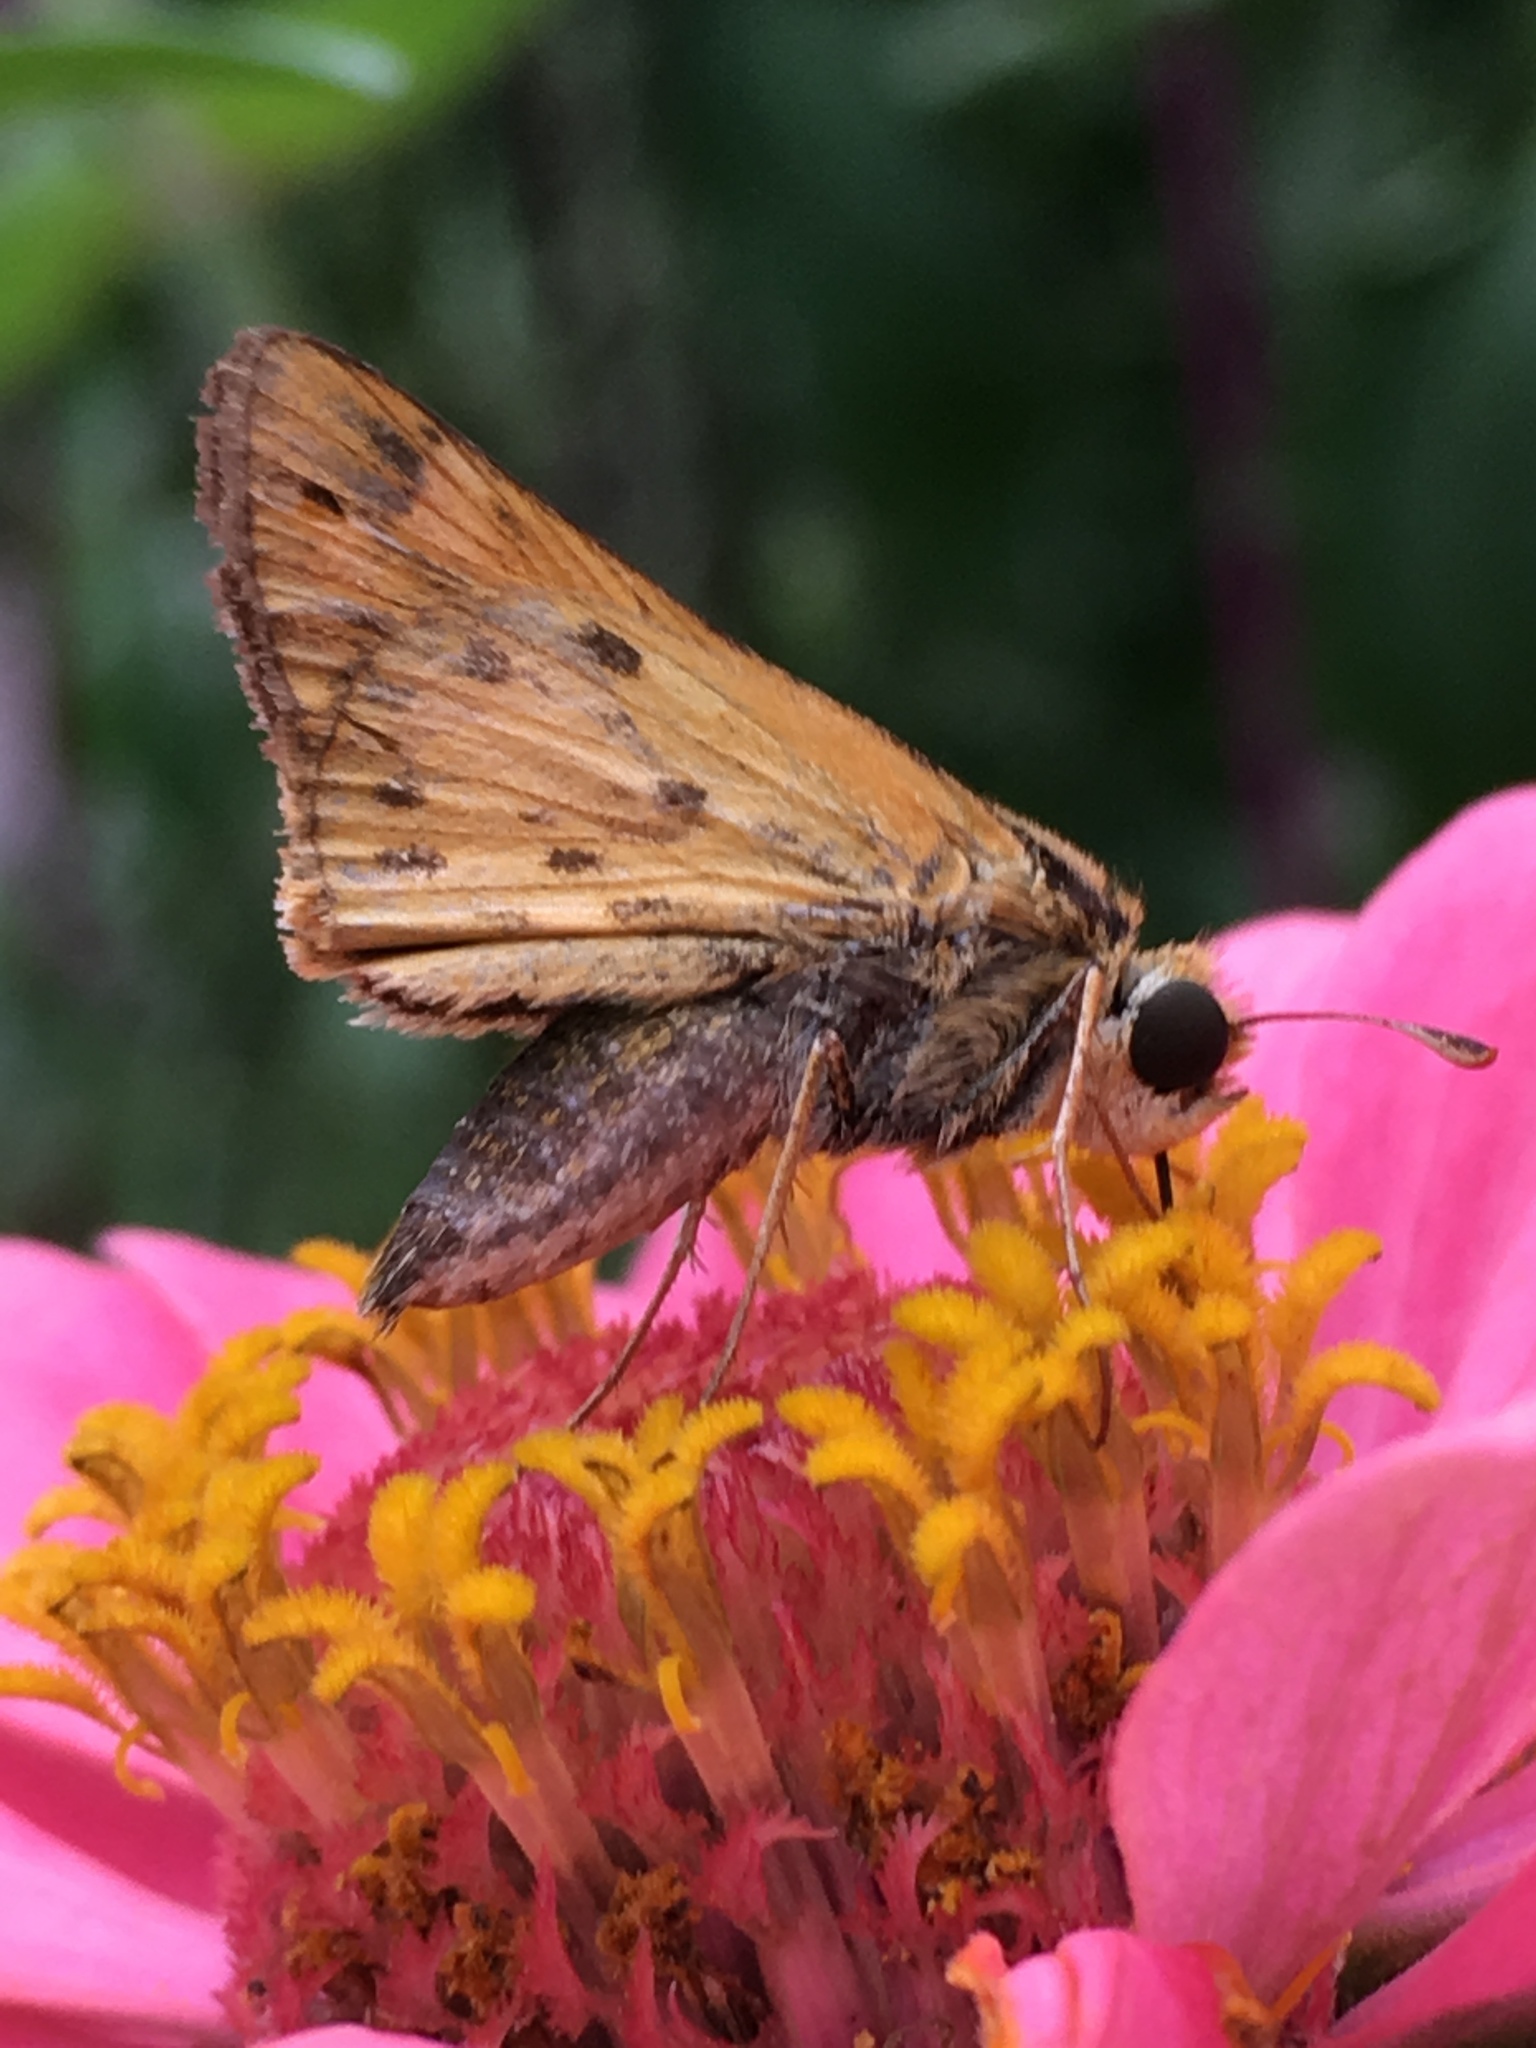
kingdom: Animalia
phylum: Arthropoda
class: Insecta
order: Lepidoptera
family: Hesperiidae
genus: Hylephila
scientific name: Hylephila phyleus
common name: Fiery skipper
